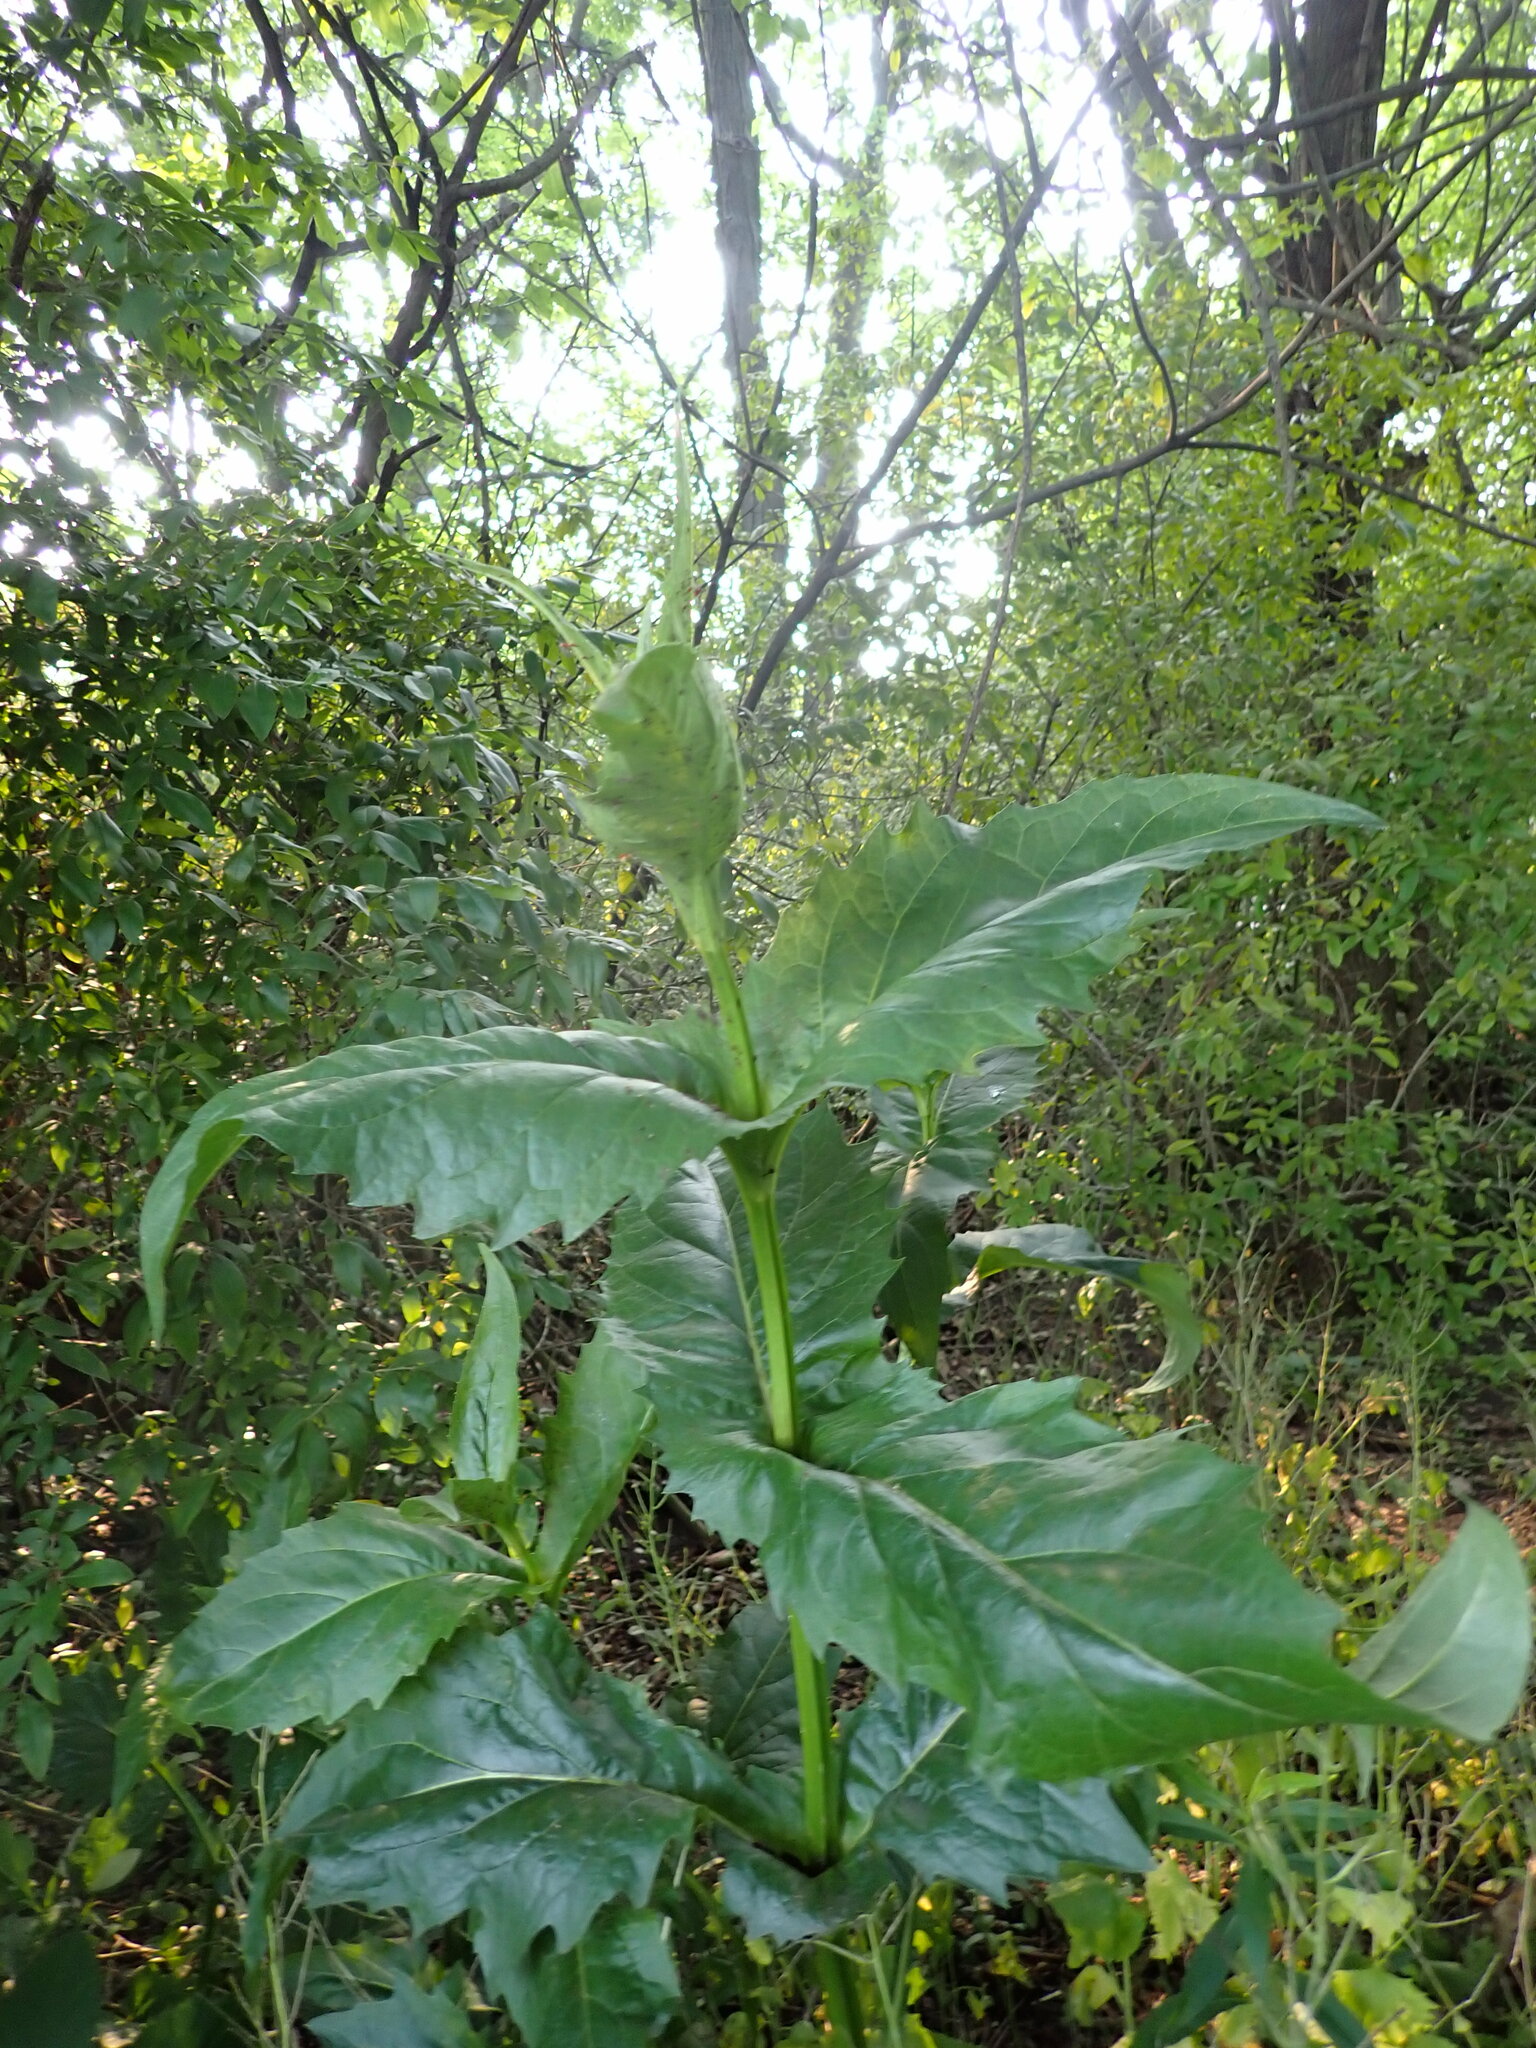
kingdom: Plantae
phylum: Tracheophyta
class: Magnoliopsida
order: Asterales
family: Asteraceae
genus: Silphium
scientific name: Silphium perfoliatum
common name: Cup-plant
